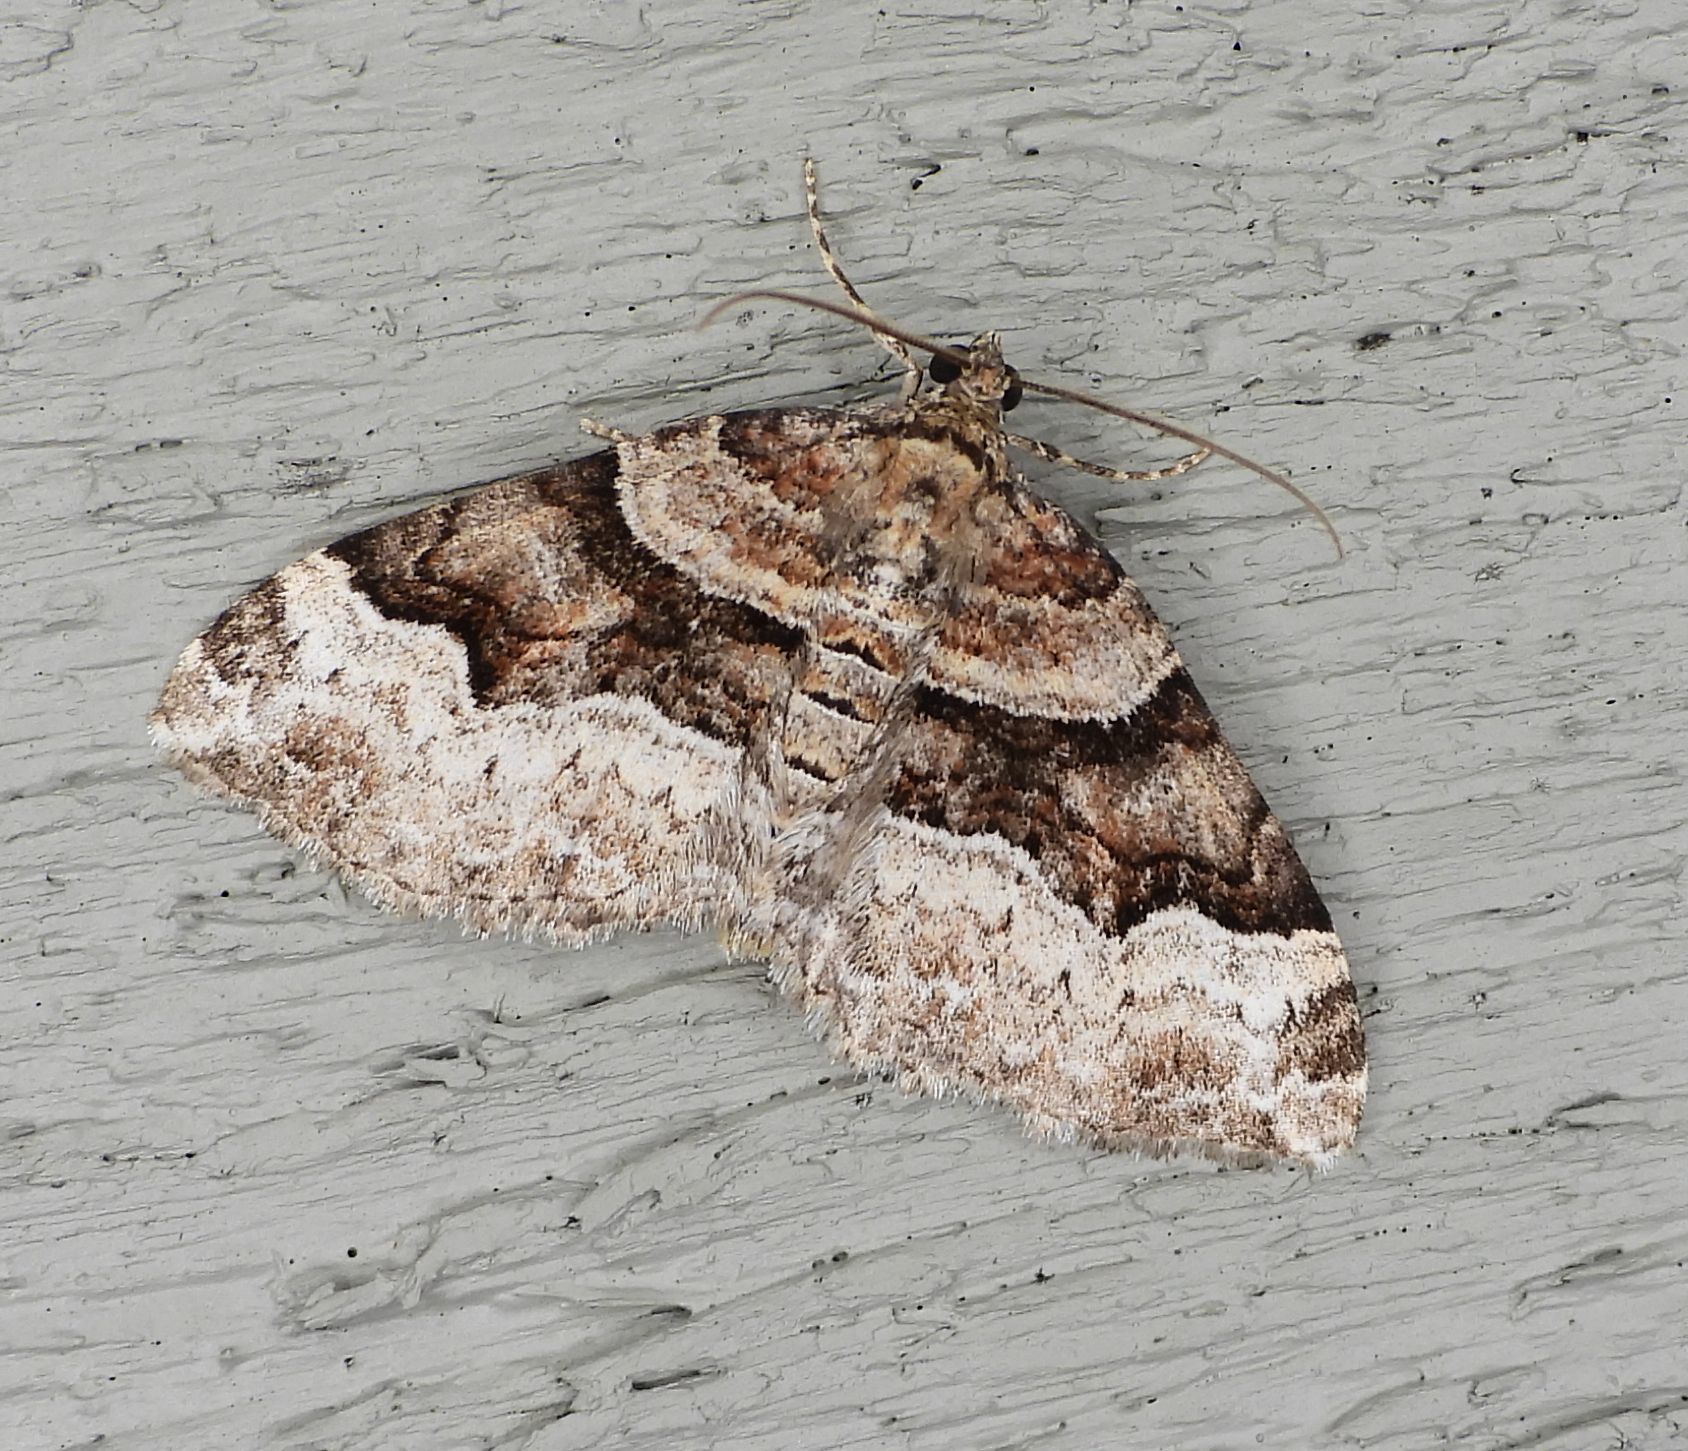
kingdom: Animalia
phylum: Arthropoda
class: Insecta
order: Lepidoptera
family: Geometridae
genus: Xanthorhoe
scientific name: Xanthorhoe lacustrata
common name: Toothed brown carpet
